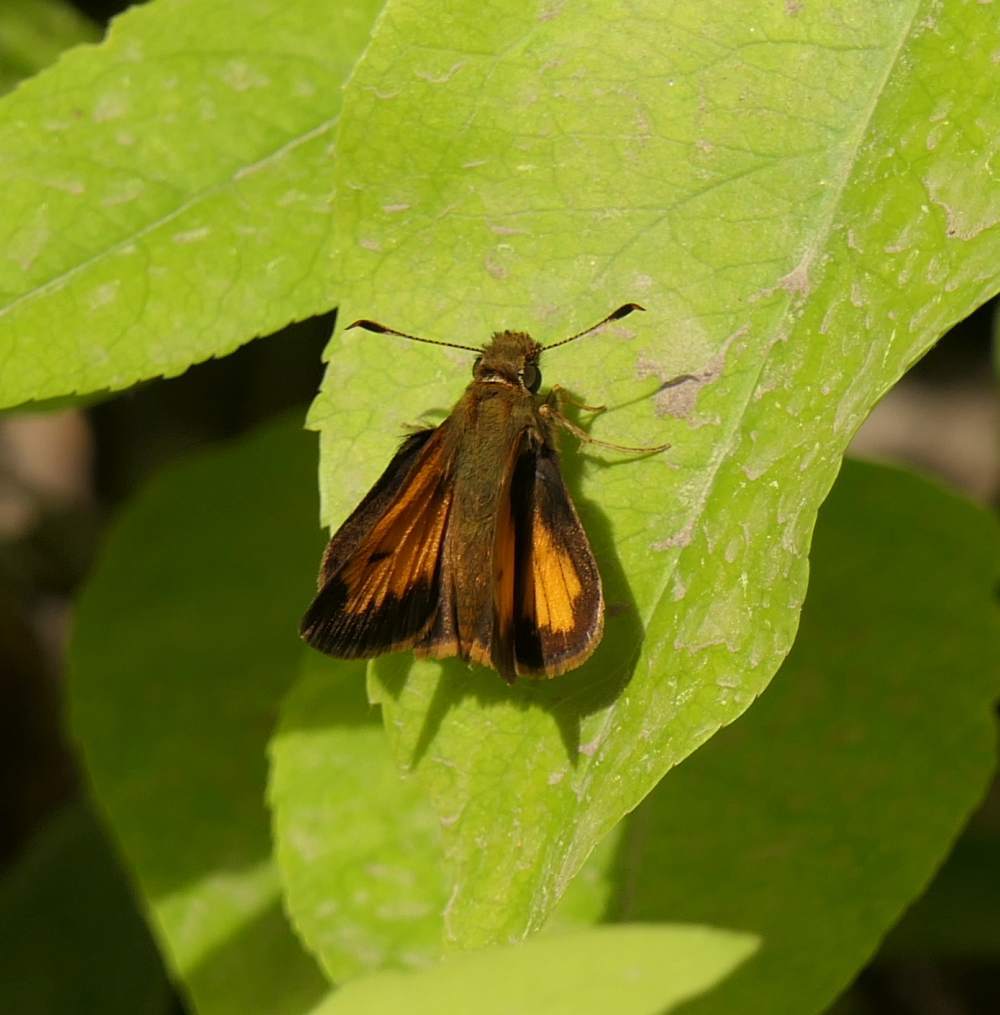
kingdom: Animalia
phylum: Arthropoda
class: Insecta
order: Lepidoptera
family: Hesperiidae
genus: Lon
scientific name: Lon hobomok
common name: Hobomok skipper
